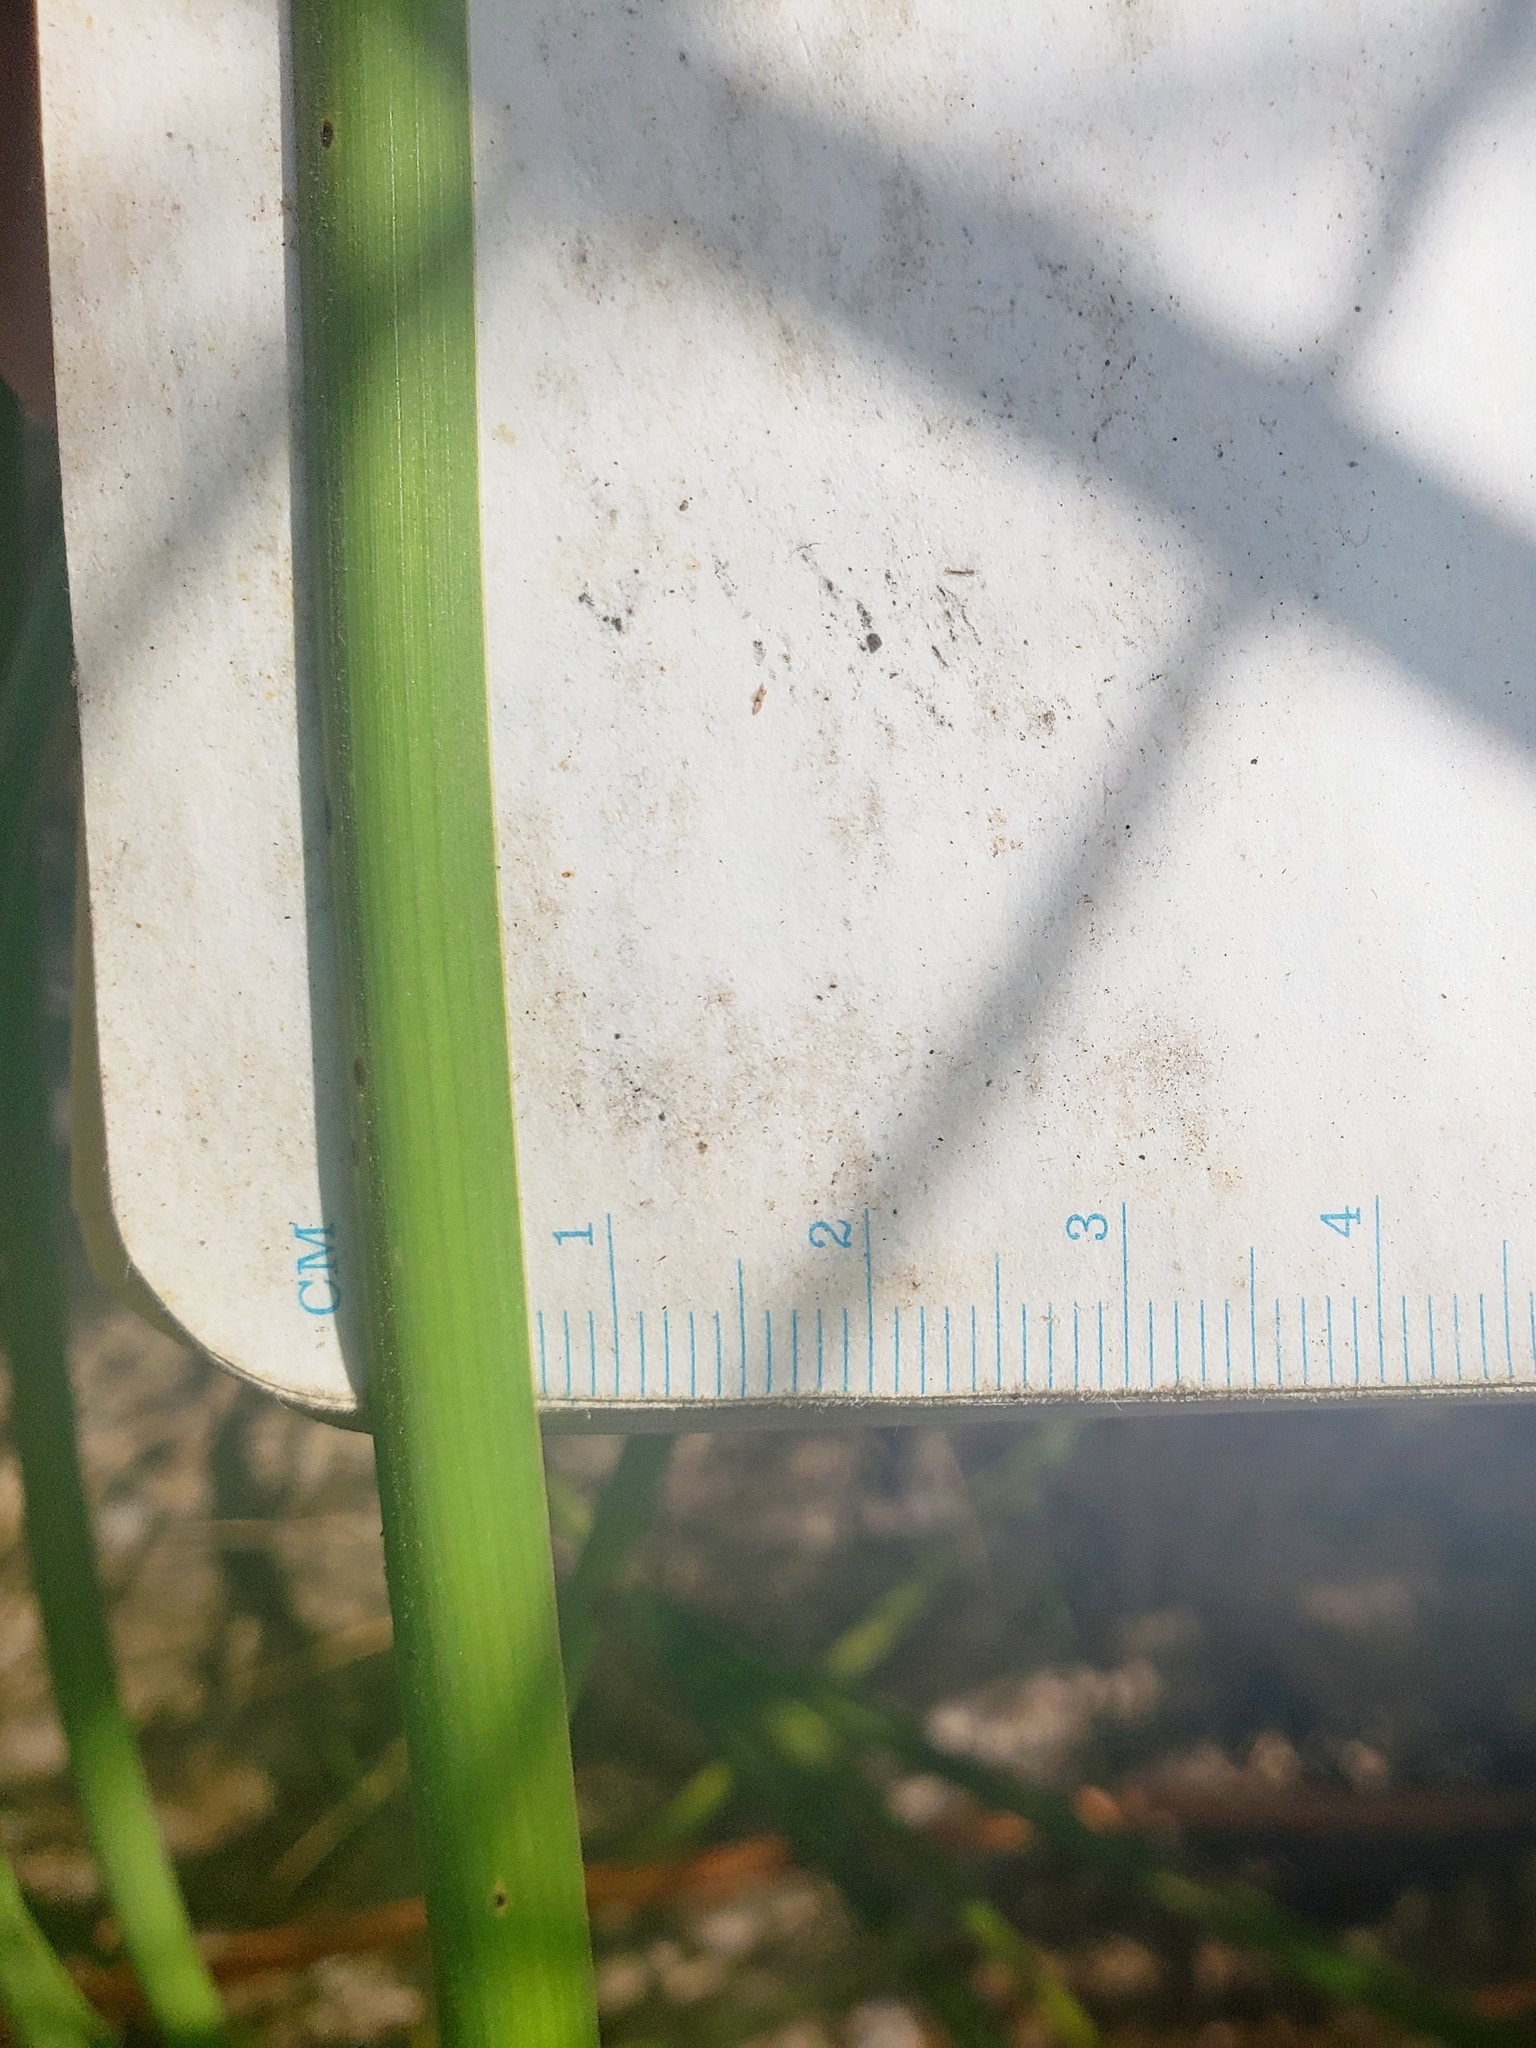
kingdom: Plantae
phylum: Tracheophyta
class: Liliopsida
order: Poales
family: Typhaceae
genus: Typha
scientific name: Typha angustifolia
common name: Lesser bulrush
